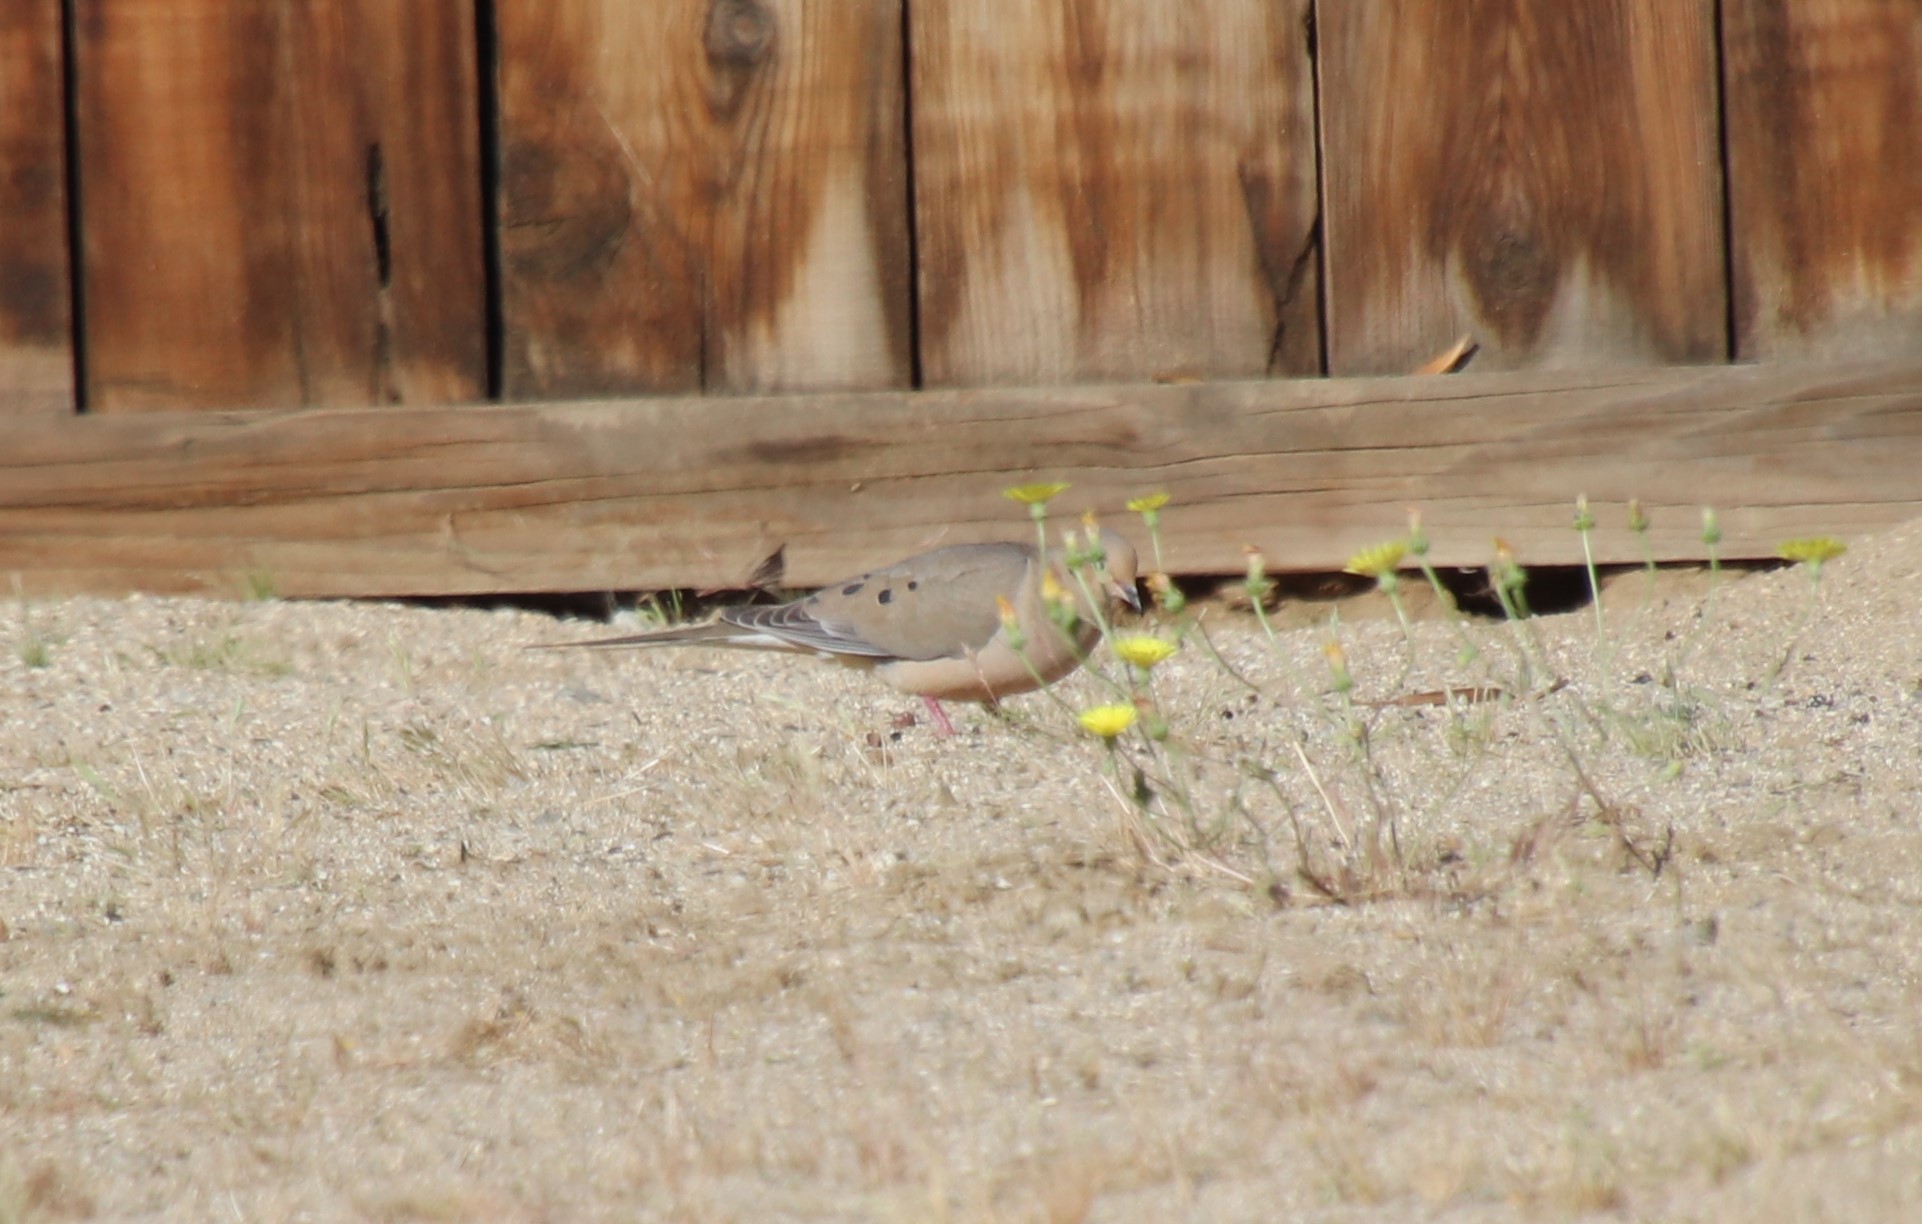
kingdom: Animalia
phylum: Chordata
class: Aves
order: Columbiformes
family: Columbidae
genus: Zenaida
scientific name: Zenaida macroura
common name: Mourning dove
